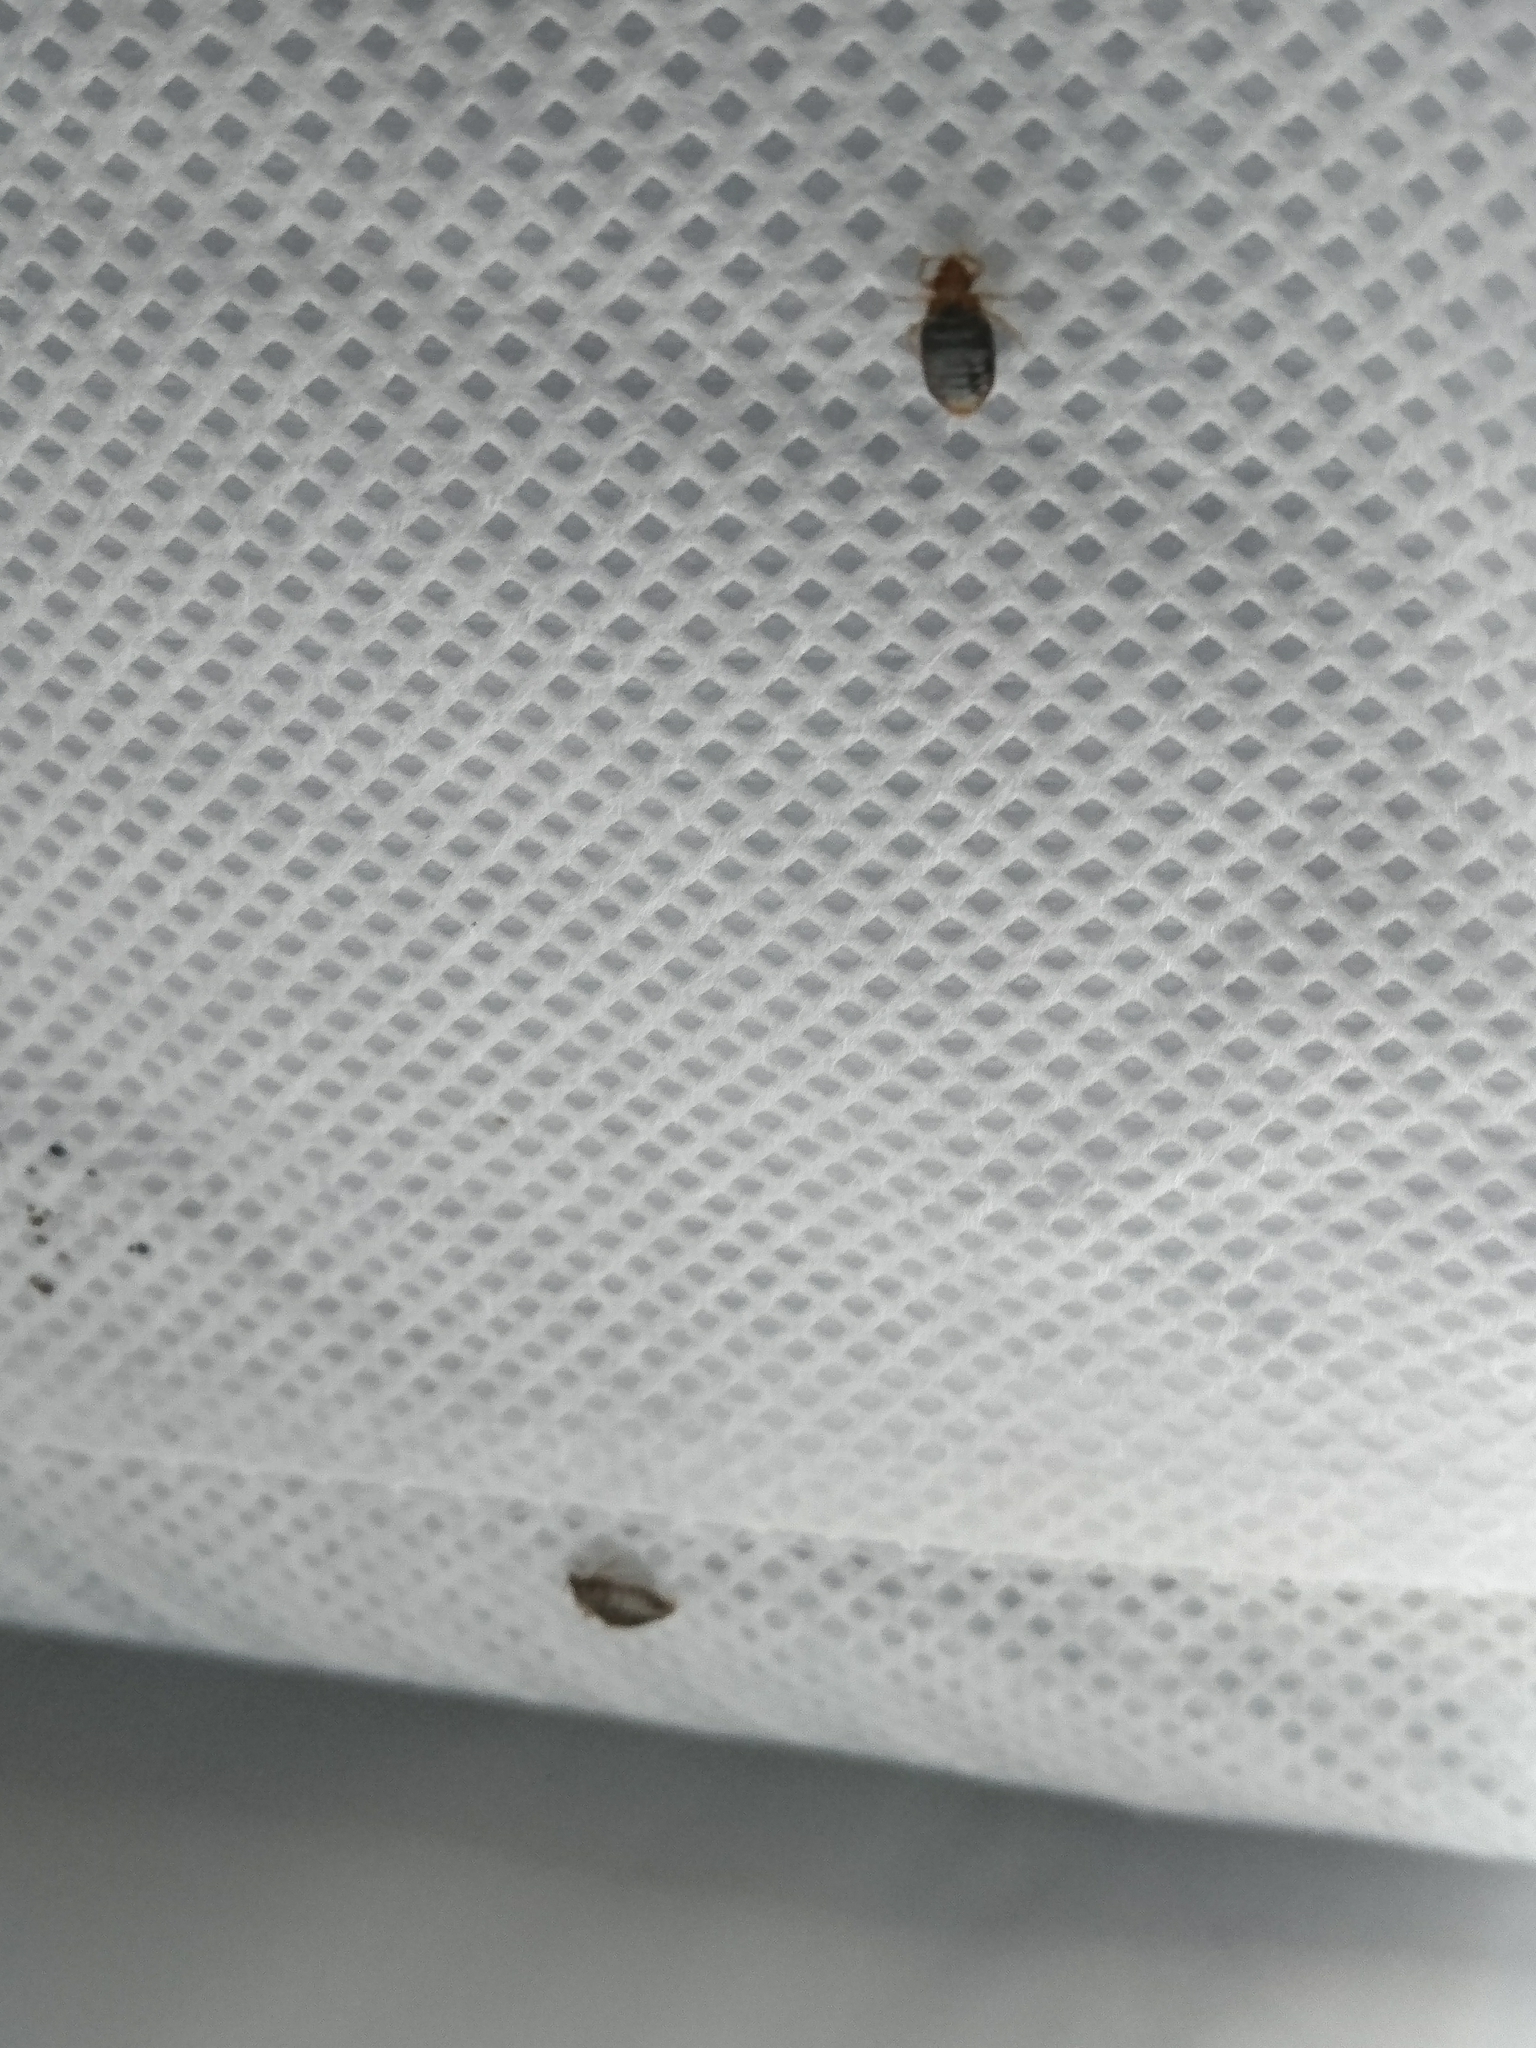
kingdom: Animalia
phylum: Arthropoda
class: Insecta
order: Hemiptera
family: Cimicidae
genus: Cimex
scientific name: Cimex lectularius
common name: Bed bug
